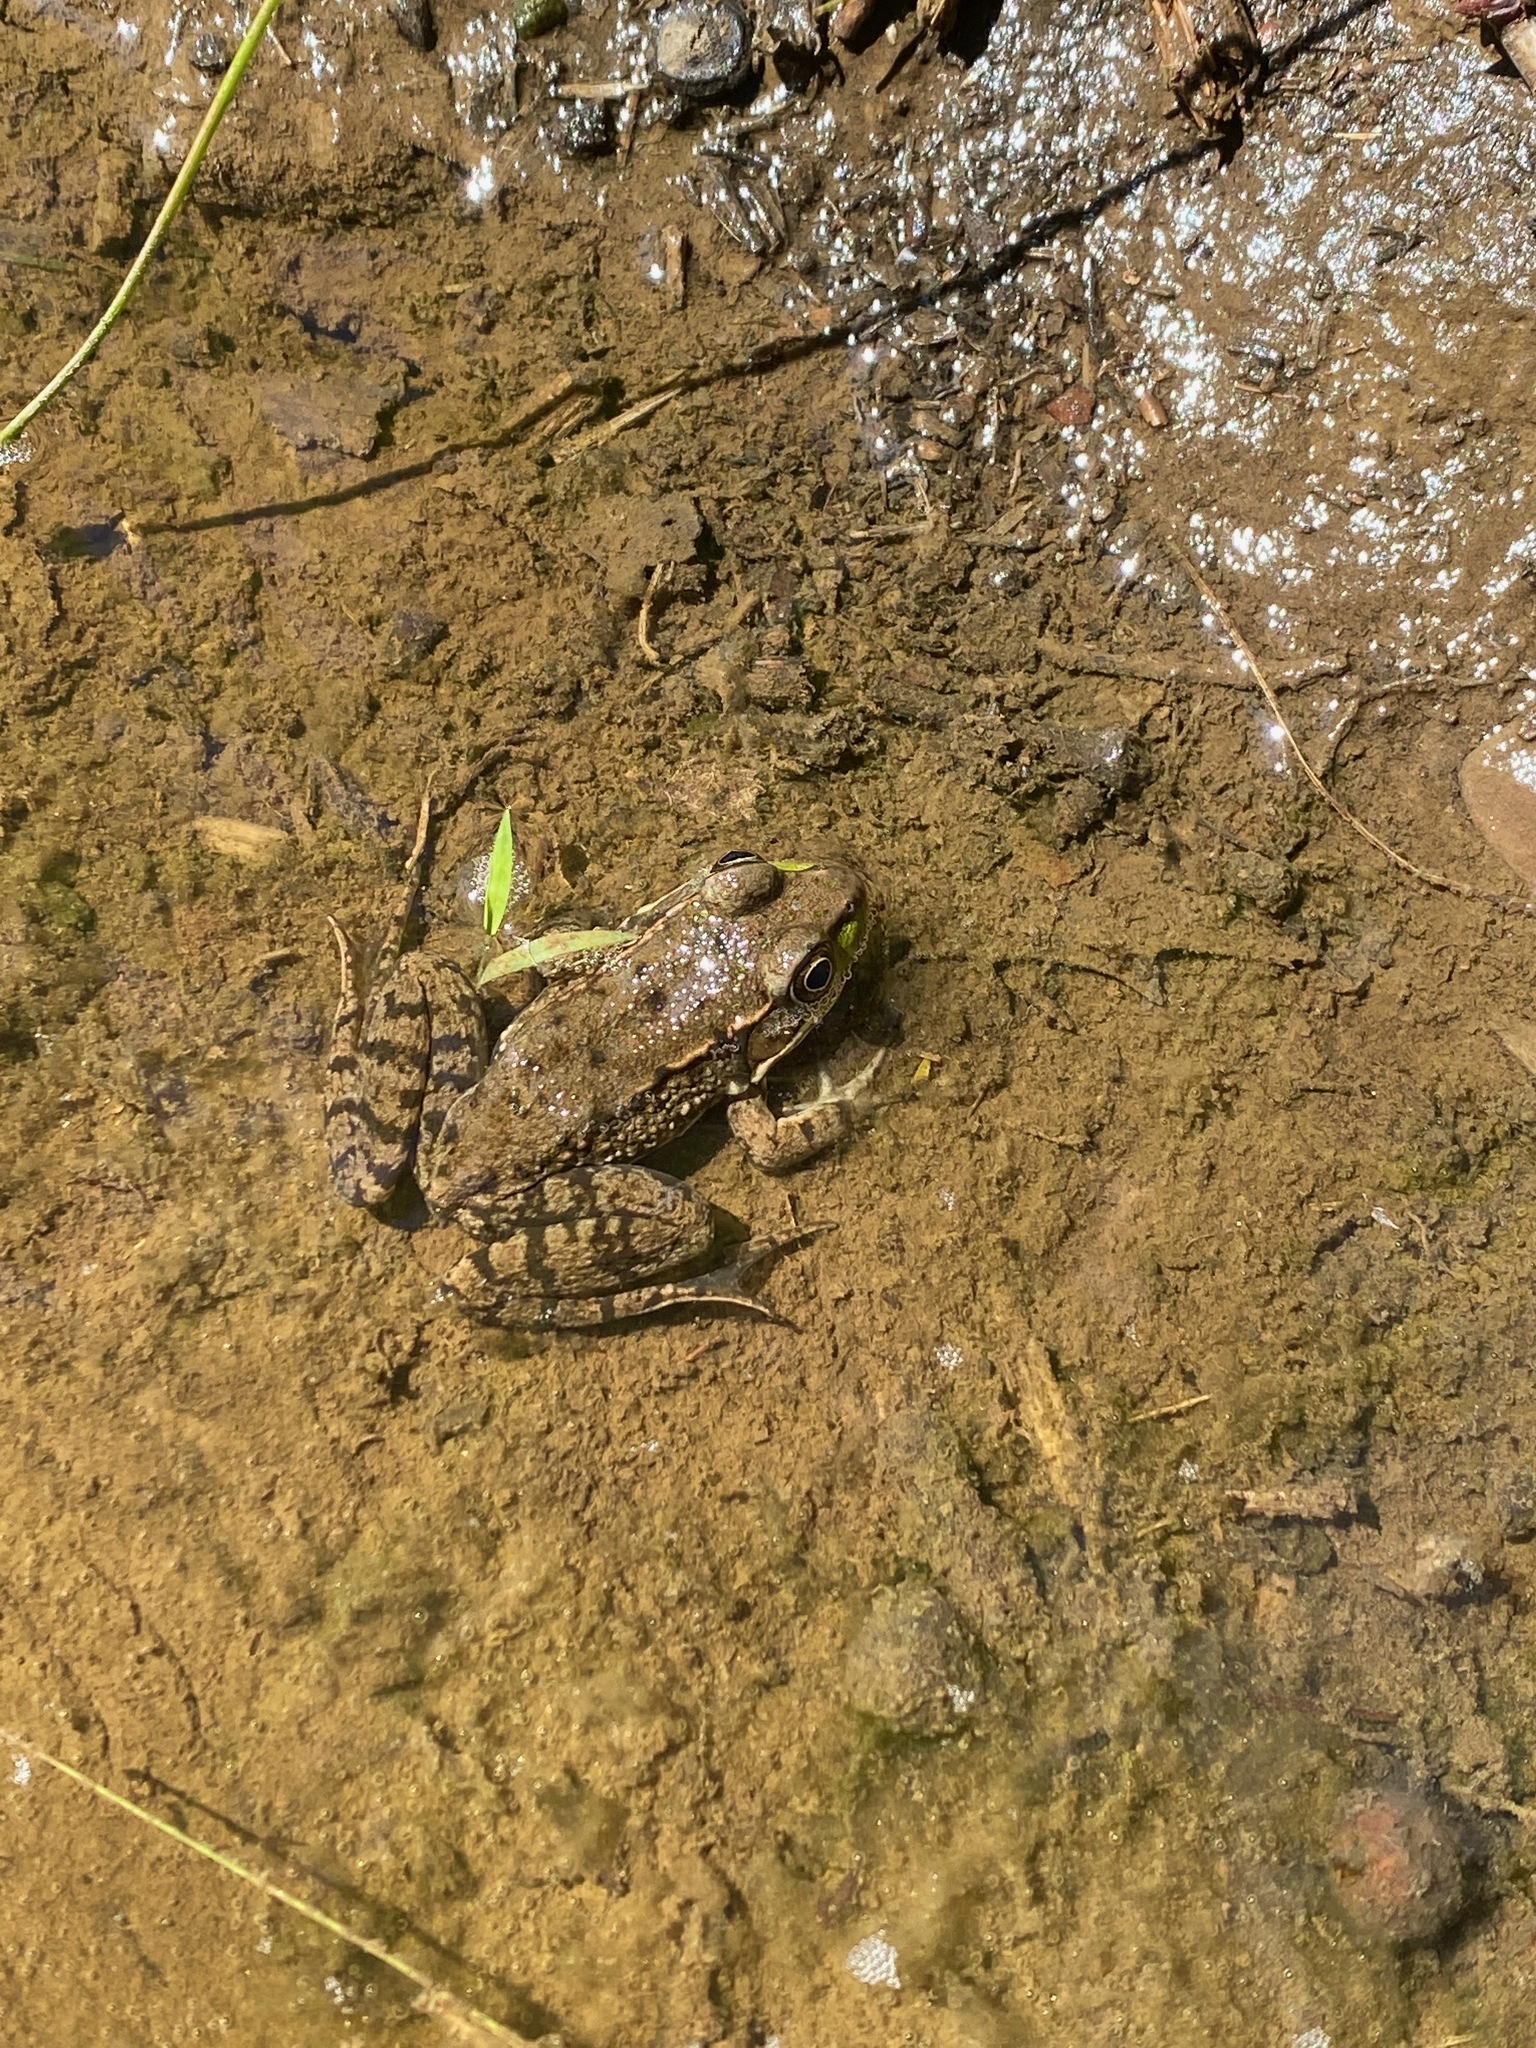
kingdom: Animalia
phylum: Chordata
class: Amphibia
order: Anura
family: Ranidae
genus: Lithobates
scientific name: Lithobates clamitans
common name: Green frog
